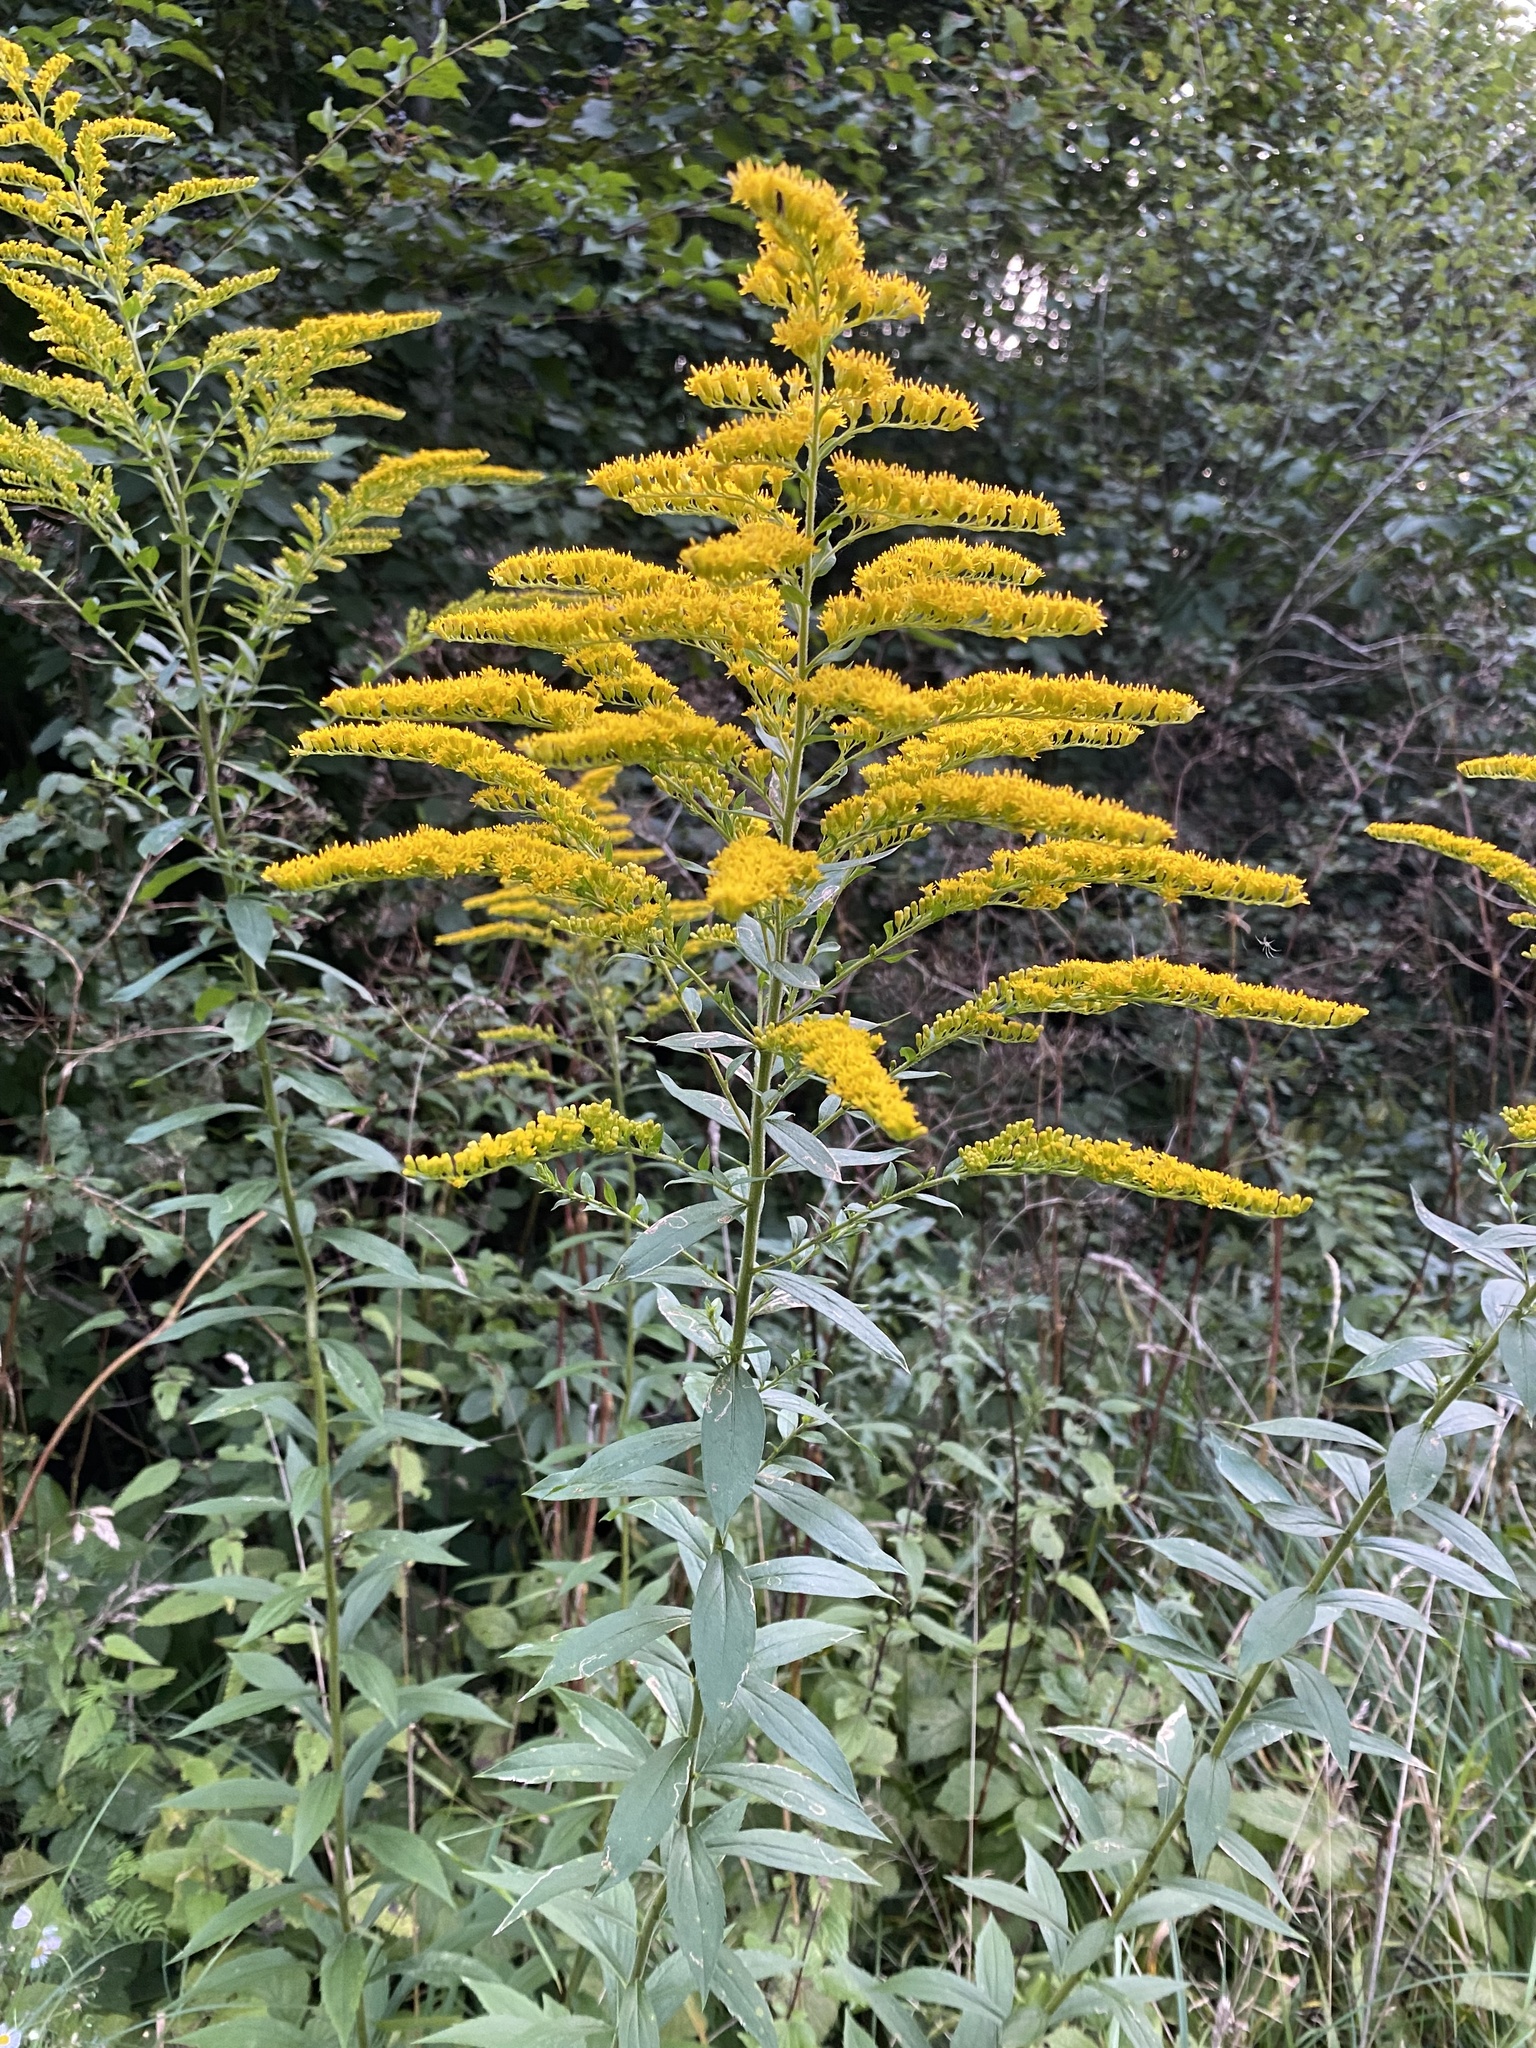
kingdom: Plantae
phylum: Tracheophyta
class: Magnoliopsida
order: Asterales
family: Asteraceae
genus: Solidago
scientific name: Solidago canadensis
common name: Canada goldenrod
